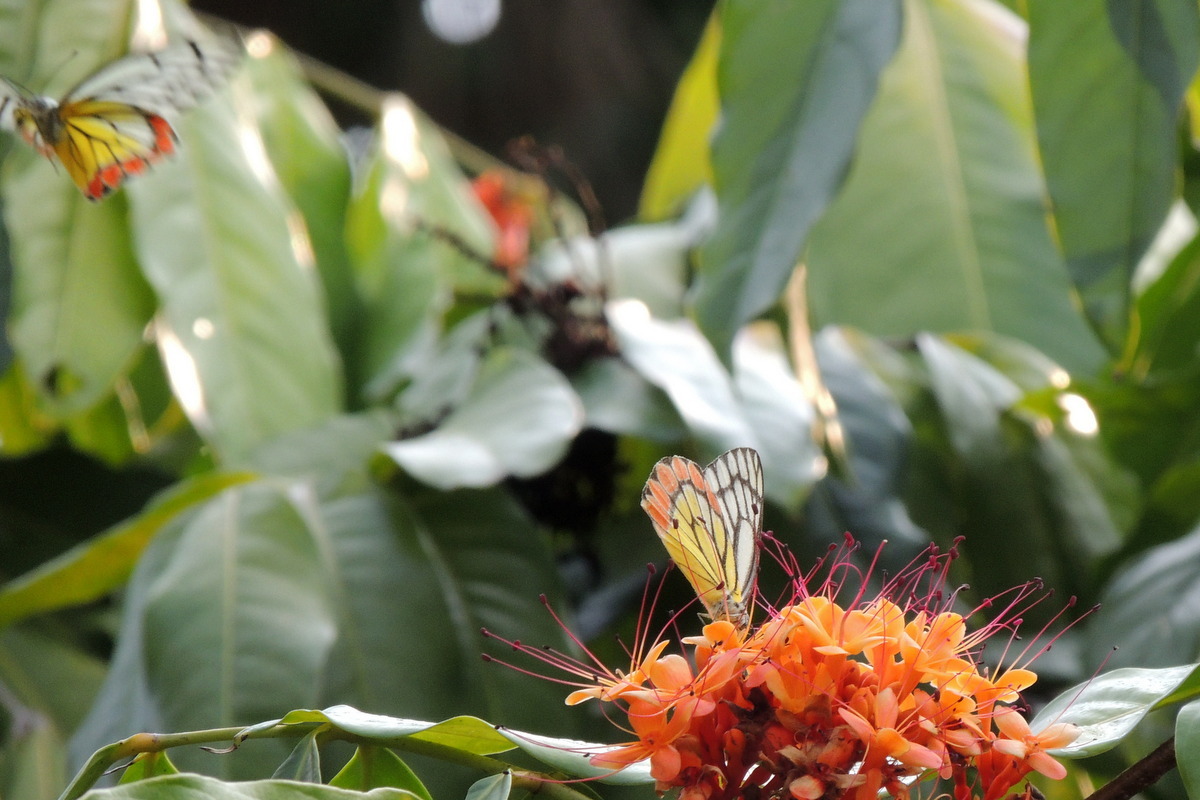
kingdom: Animalia
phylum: Arthropoda
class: Insecta
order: Lepidoptera
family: Pieridae
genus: Delias
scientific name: Delias eucharis
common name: Common jezebel
